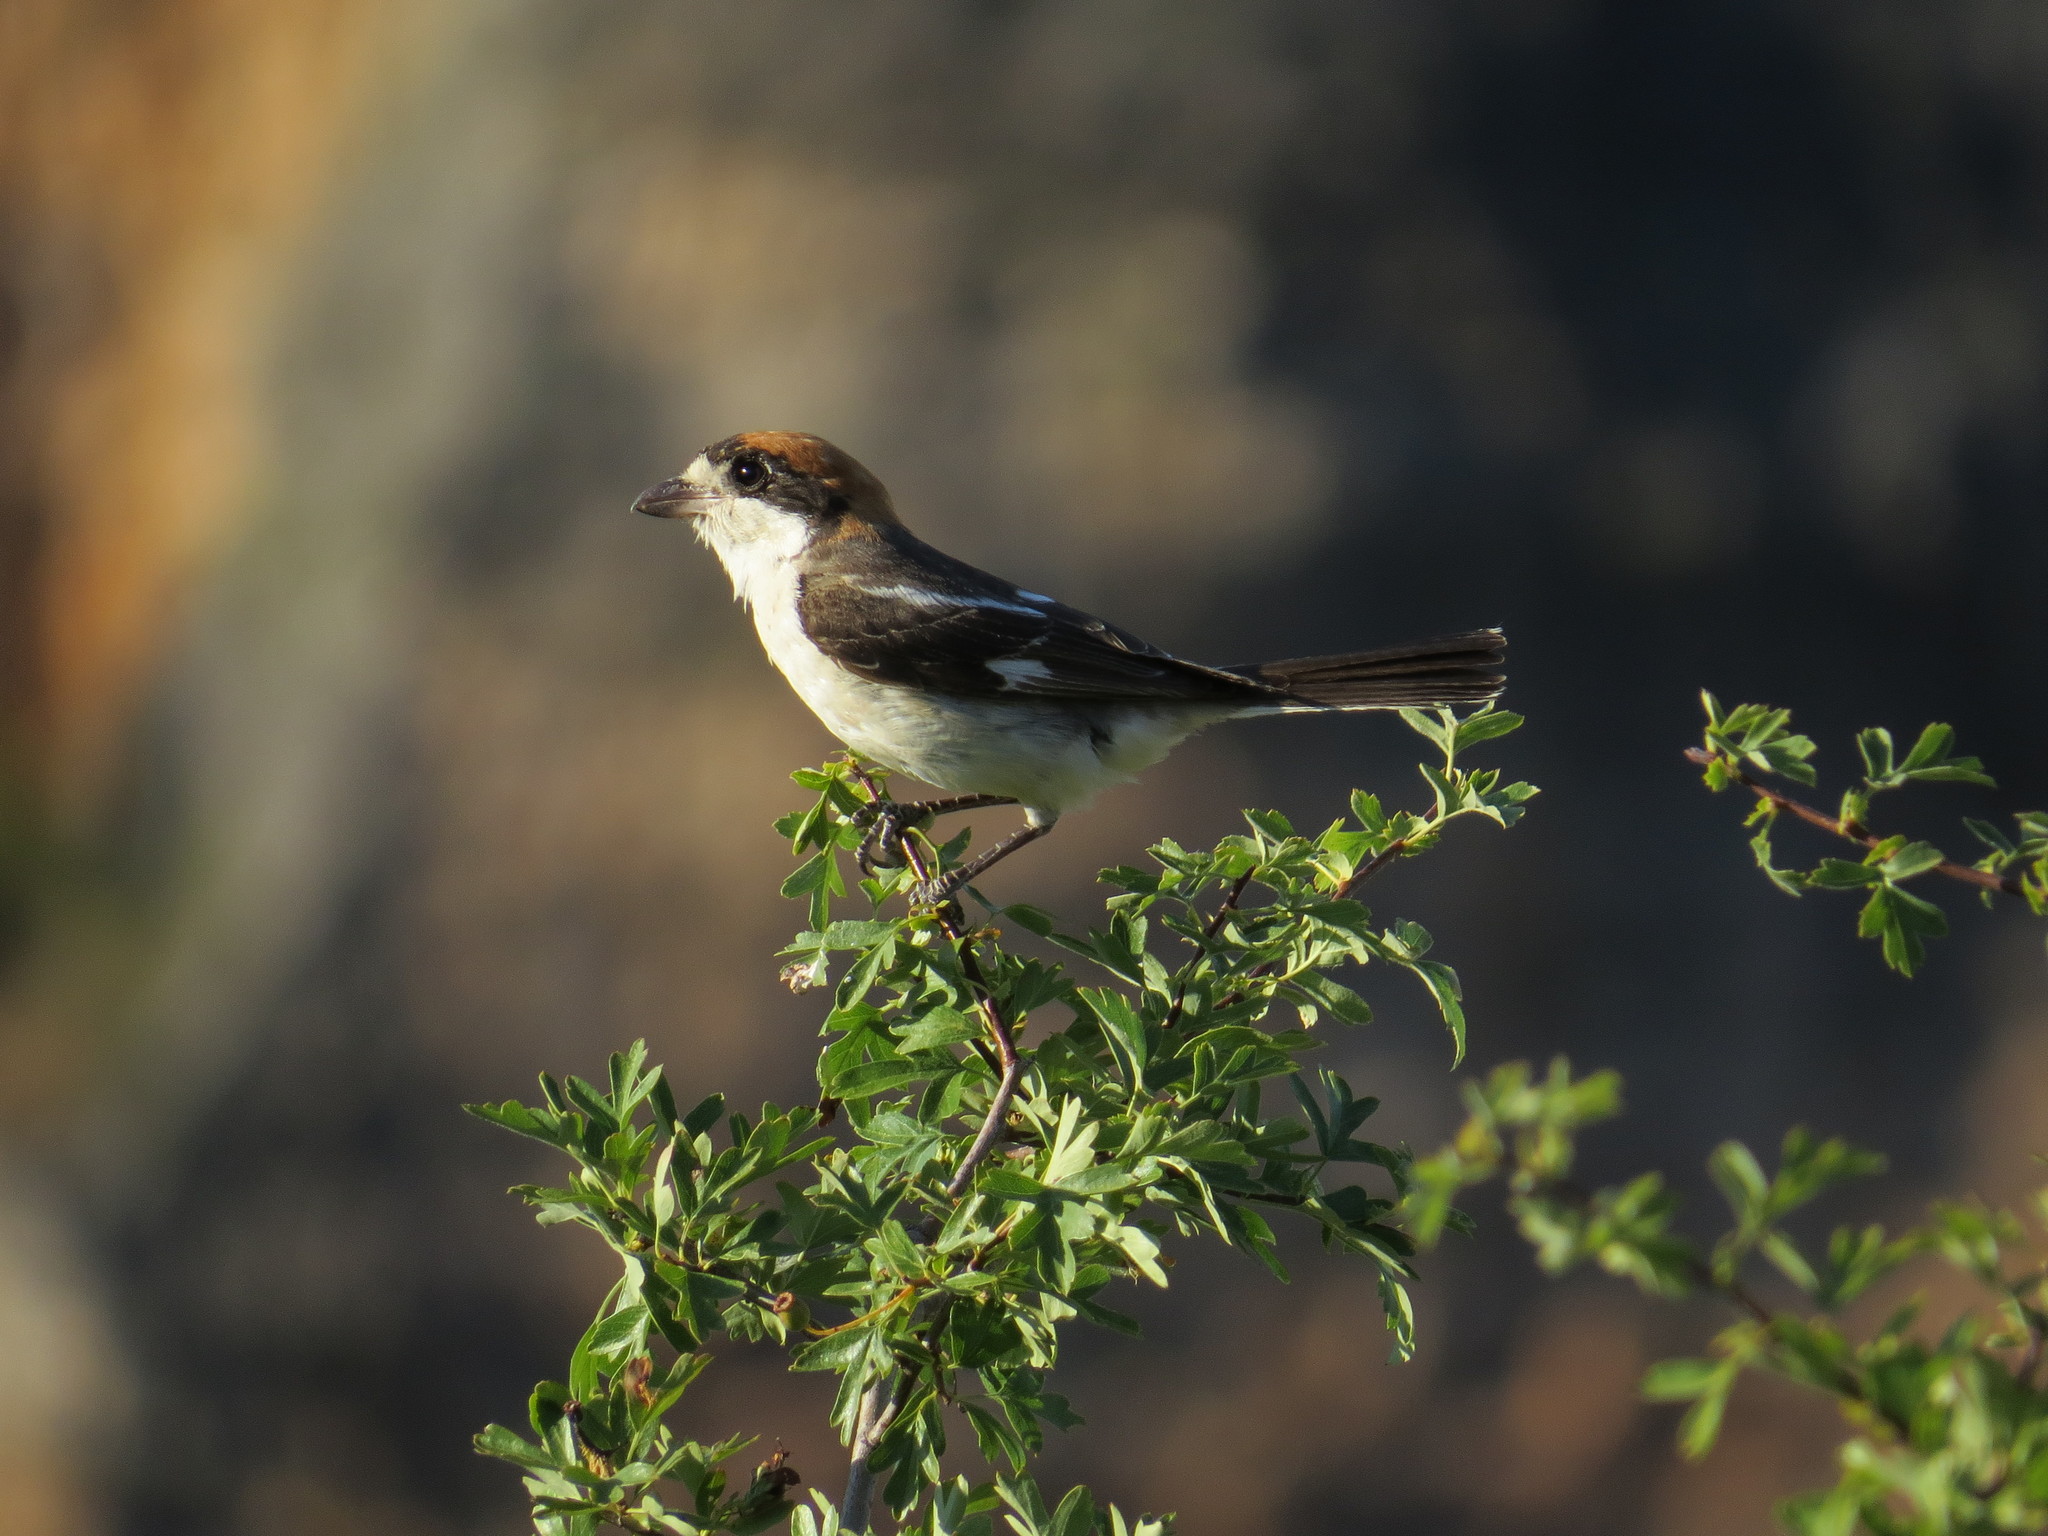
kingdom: Animalia
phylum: Chordata
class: Aves
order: Passeriformes
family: Laniidae
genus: Lanius
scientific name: Lanius senator
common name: Woodchat shrike
